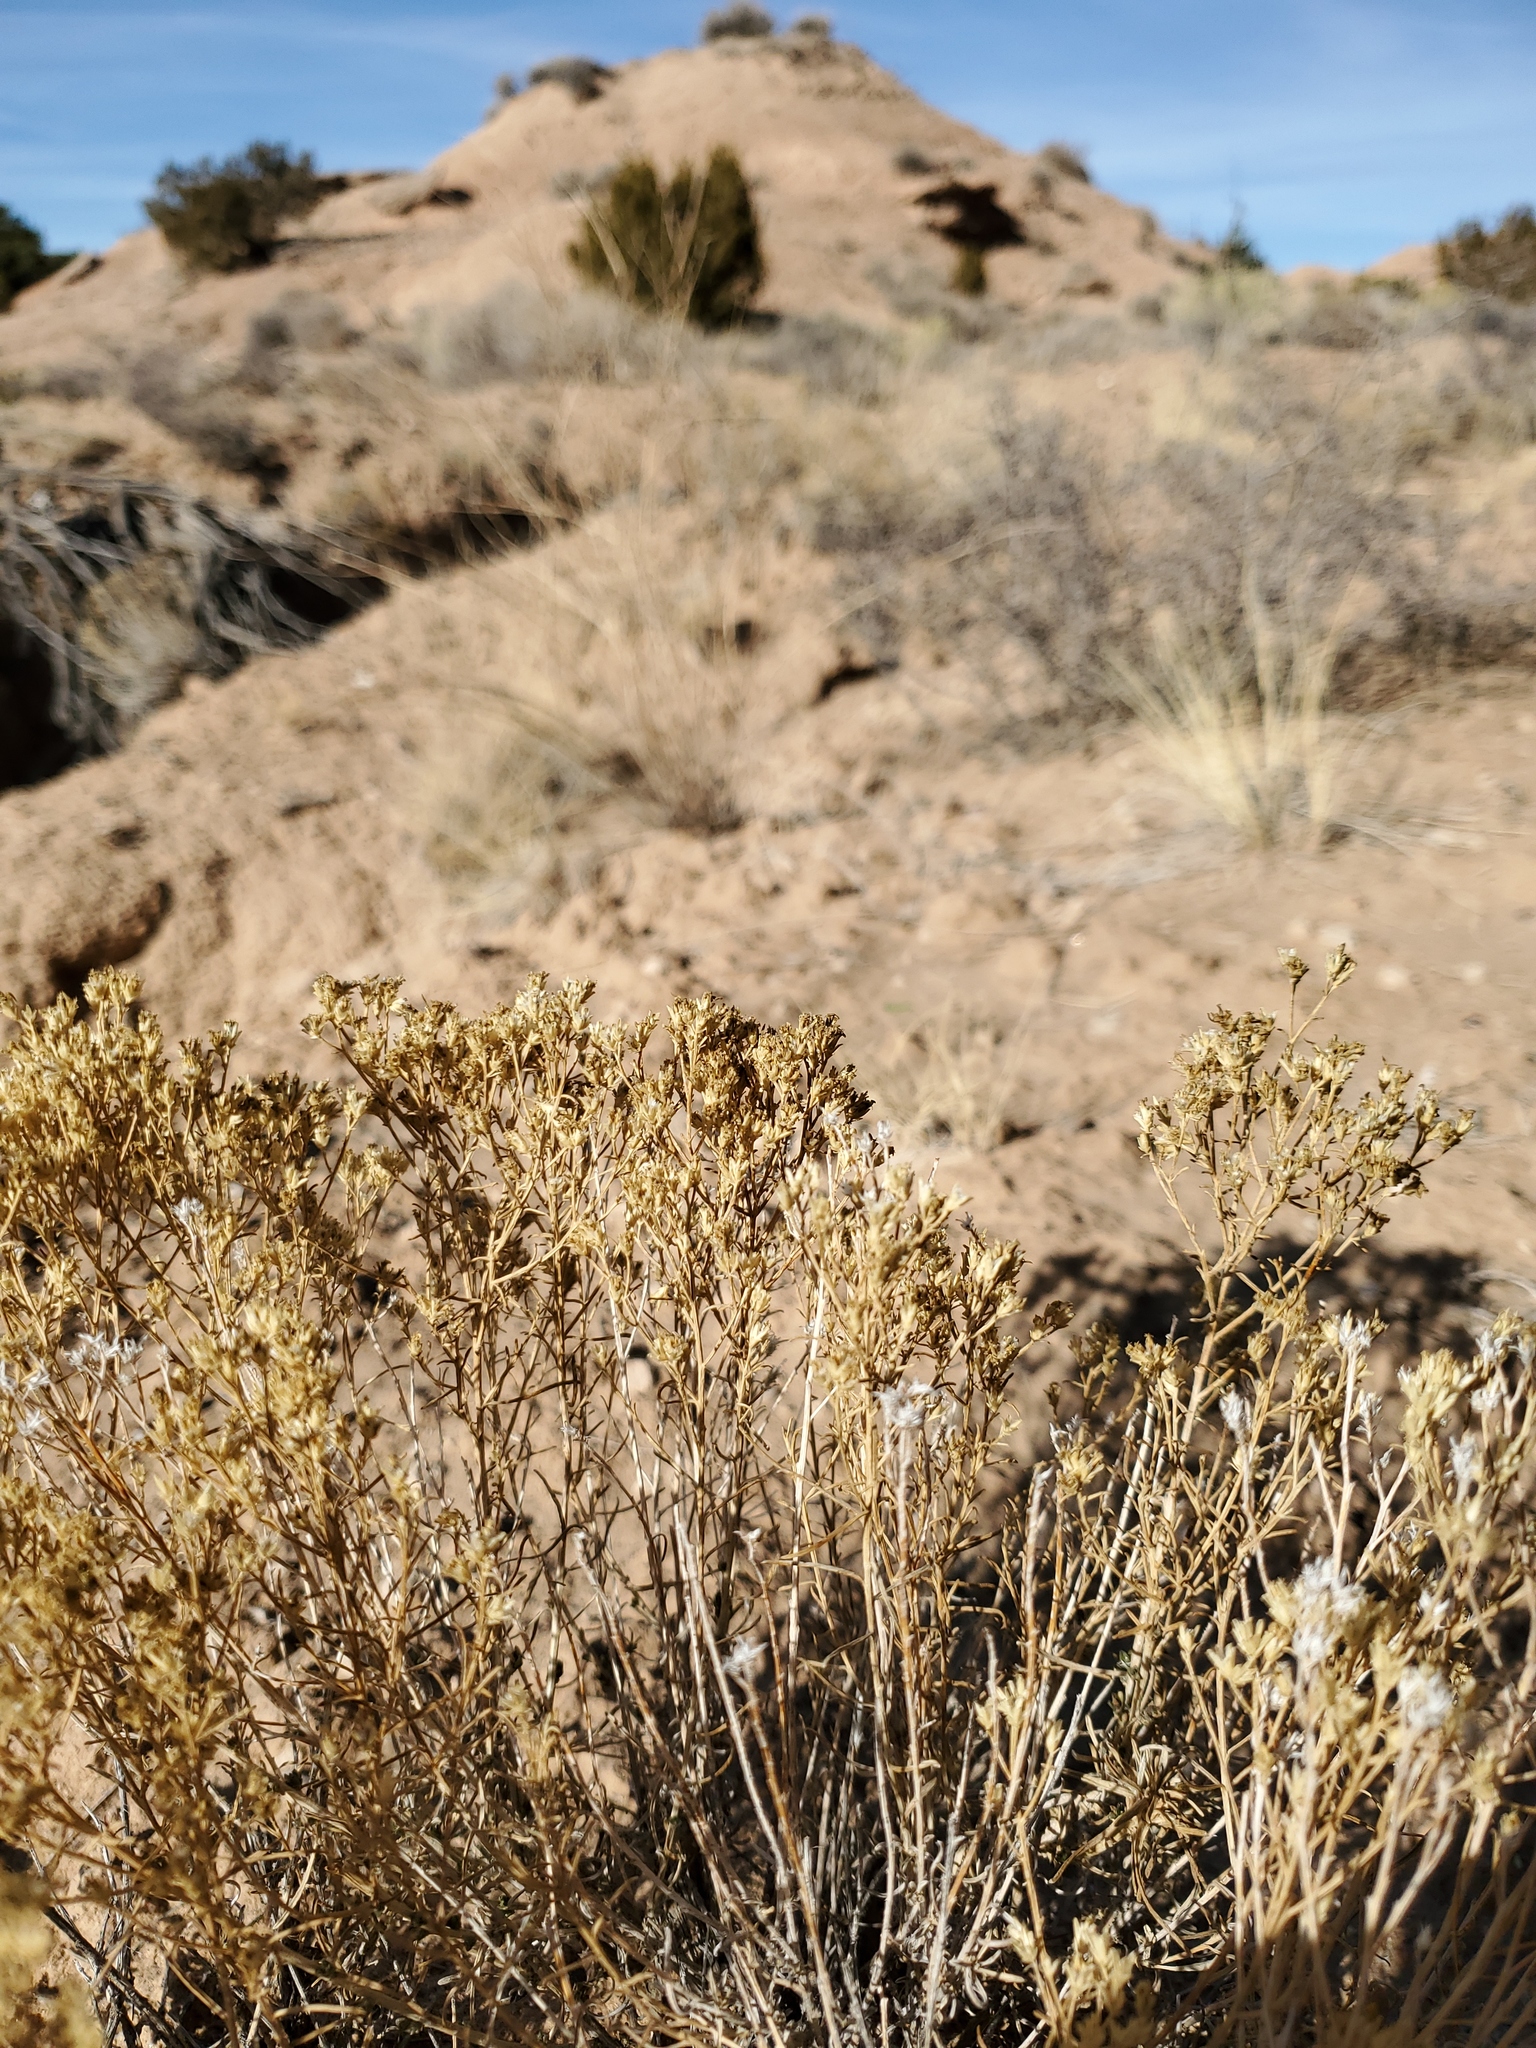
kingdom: Plantae
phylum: Tracheophyta
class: Magnoliopsida
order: Asterales
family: Asteraceae
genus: Gutierrezia
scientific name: Gutierrezia sarothrae
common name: Broom snakeweed
